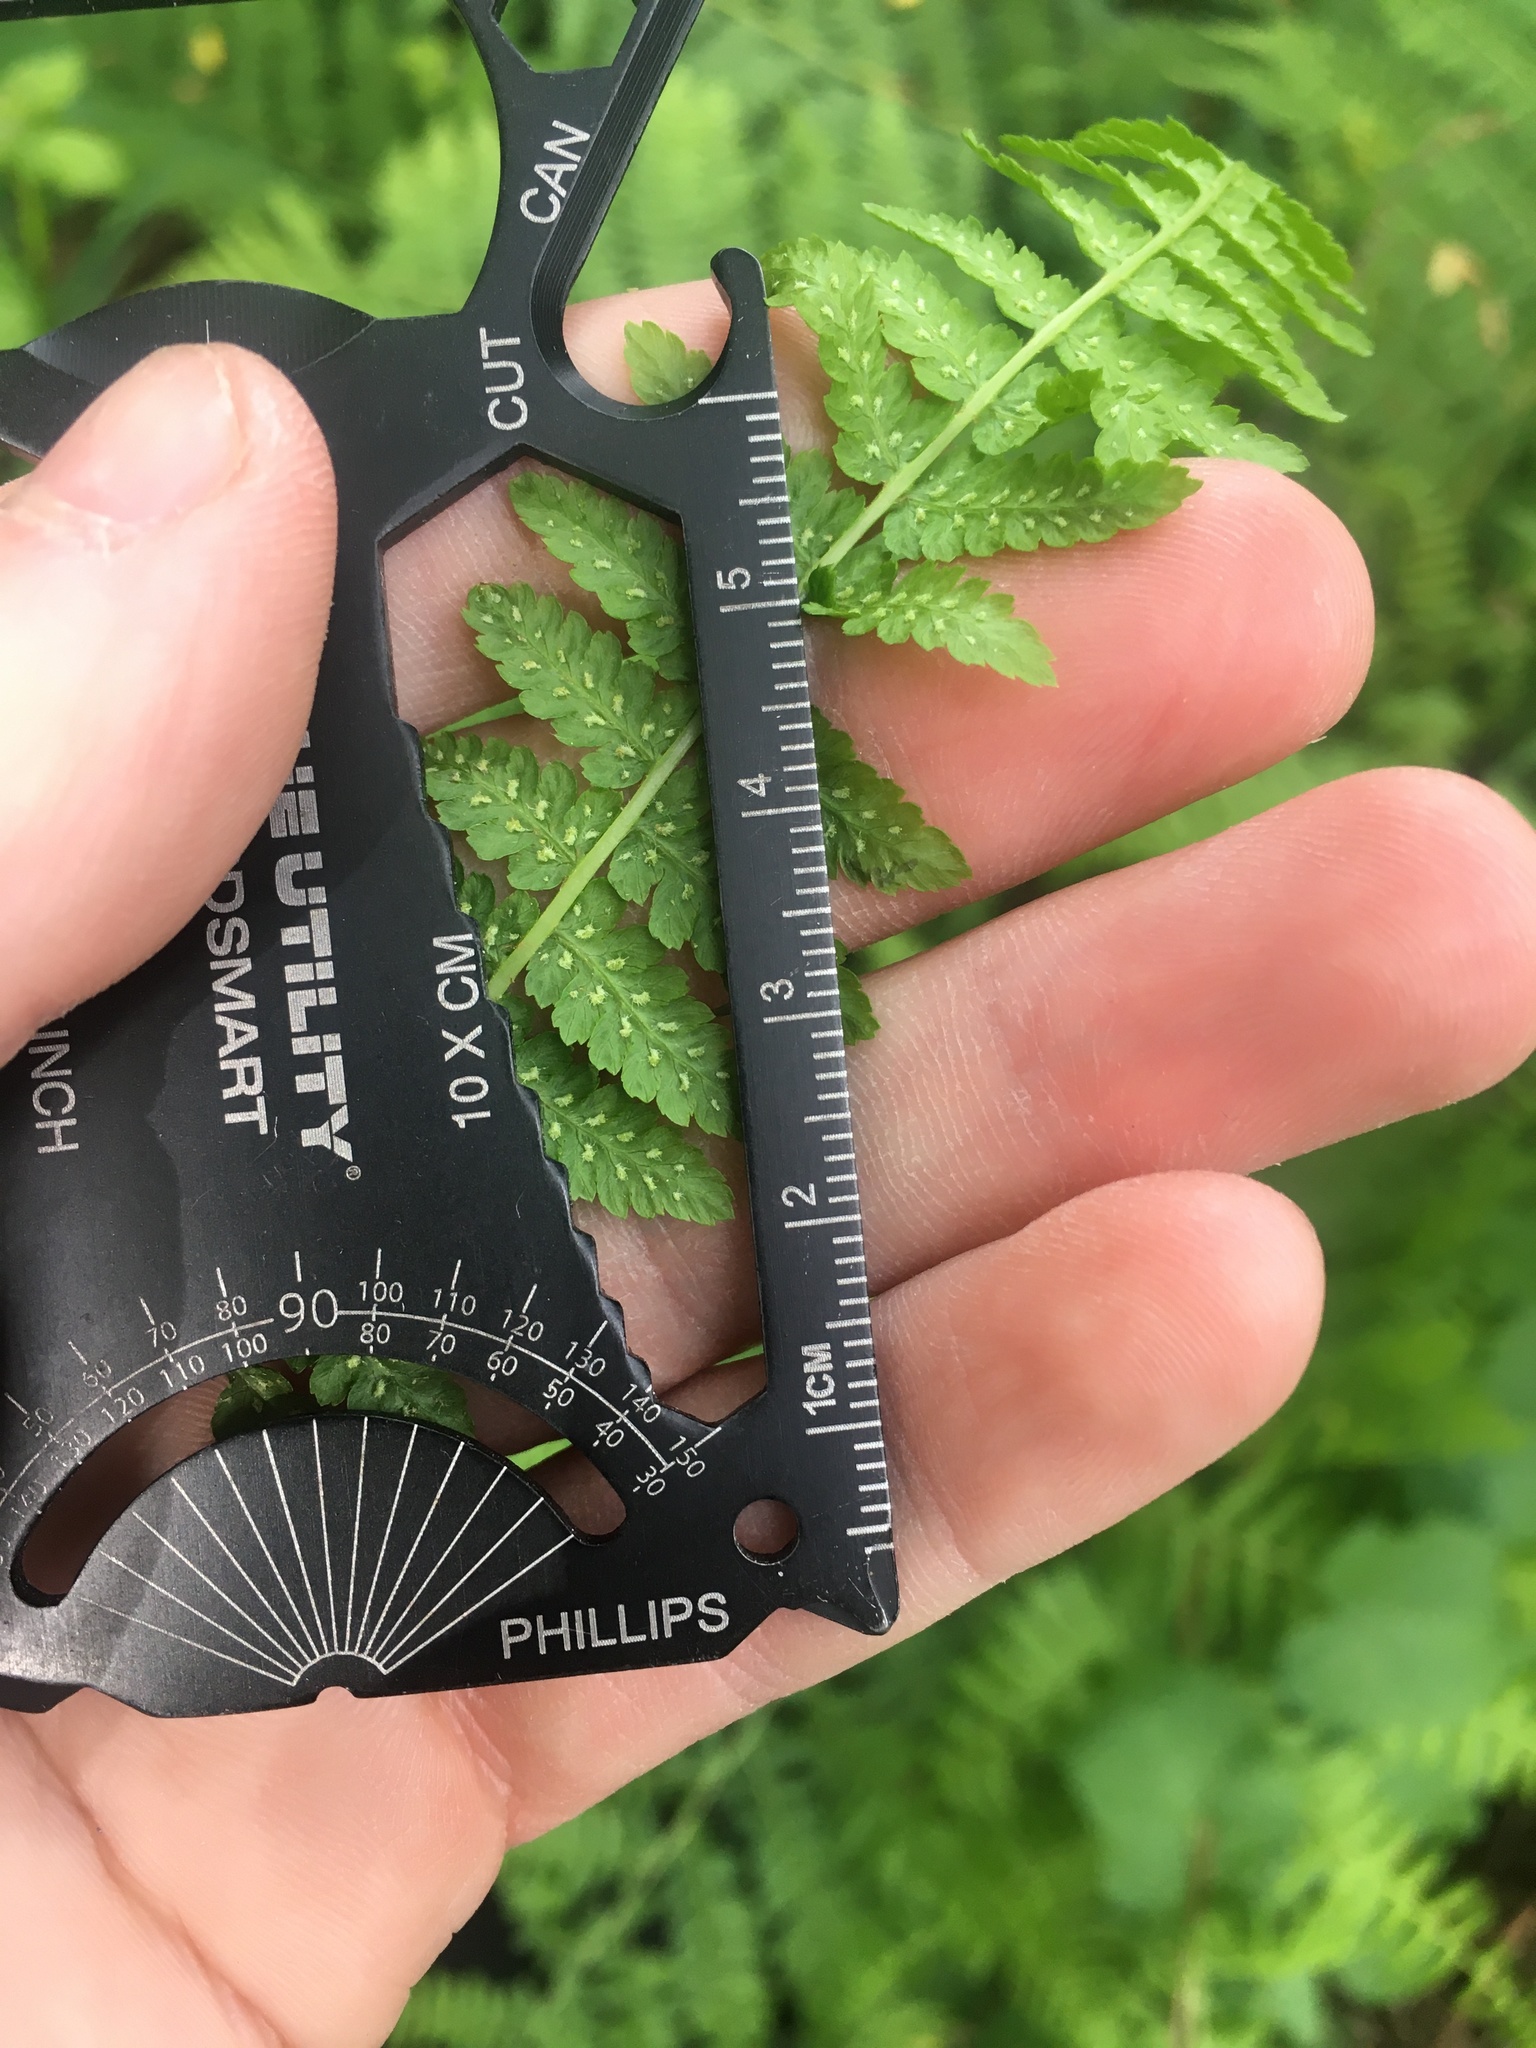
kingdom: Plantae
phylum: Tracheophyta
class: Polypodiopsida
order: Polypodiales
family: Athyriaceae
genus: Athyrium
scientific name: Athyrium cyclosorum
